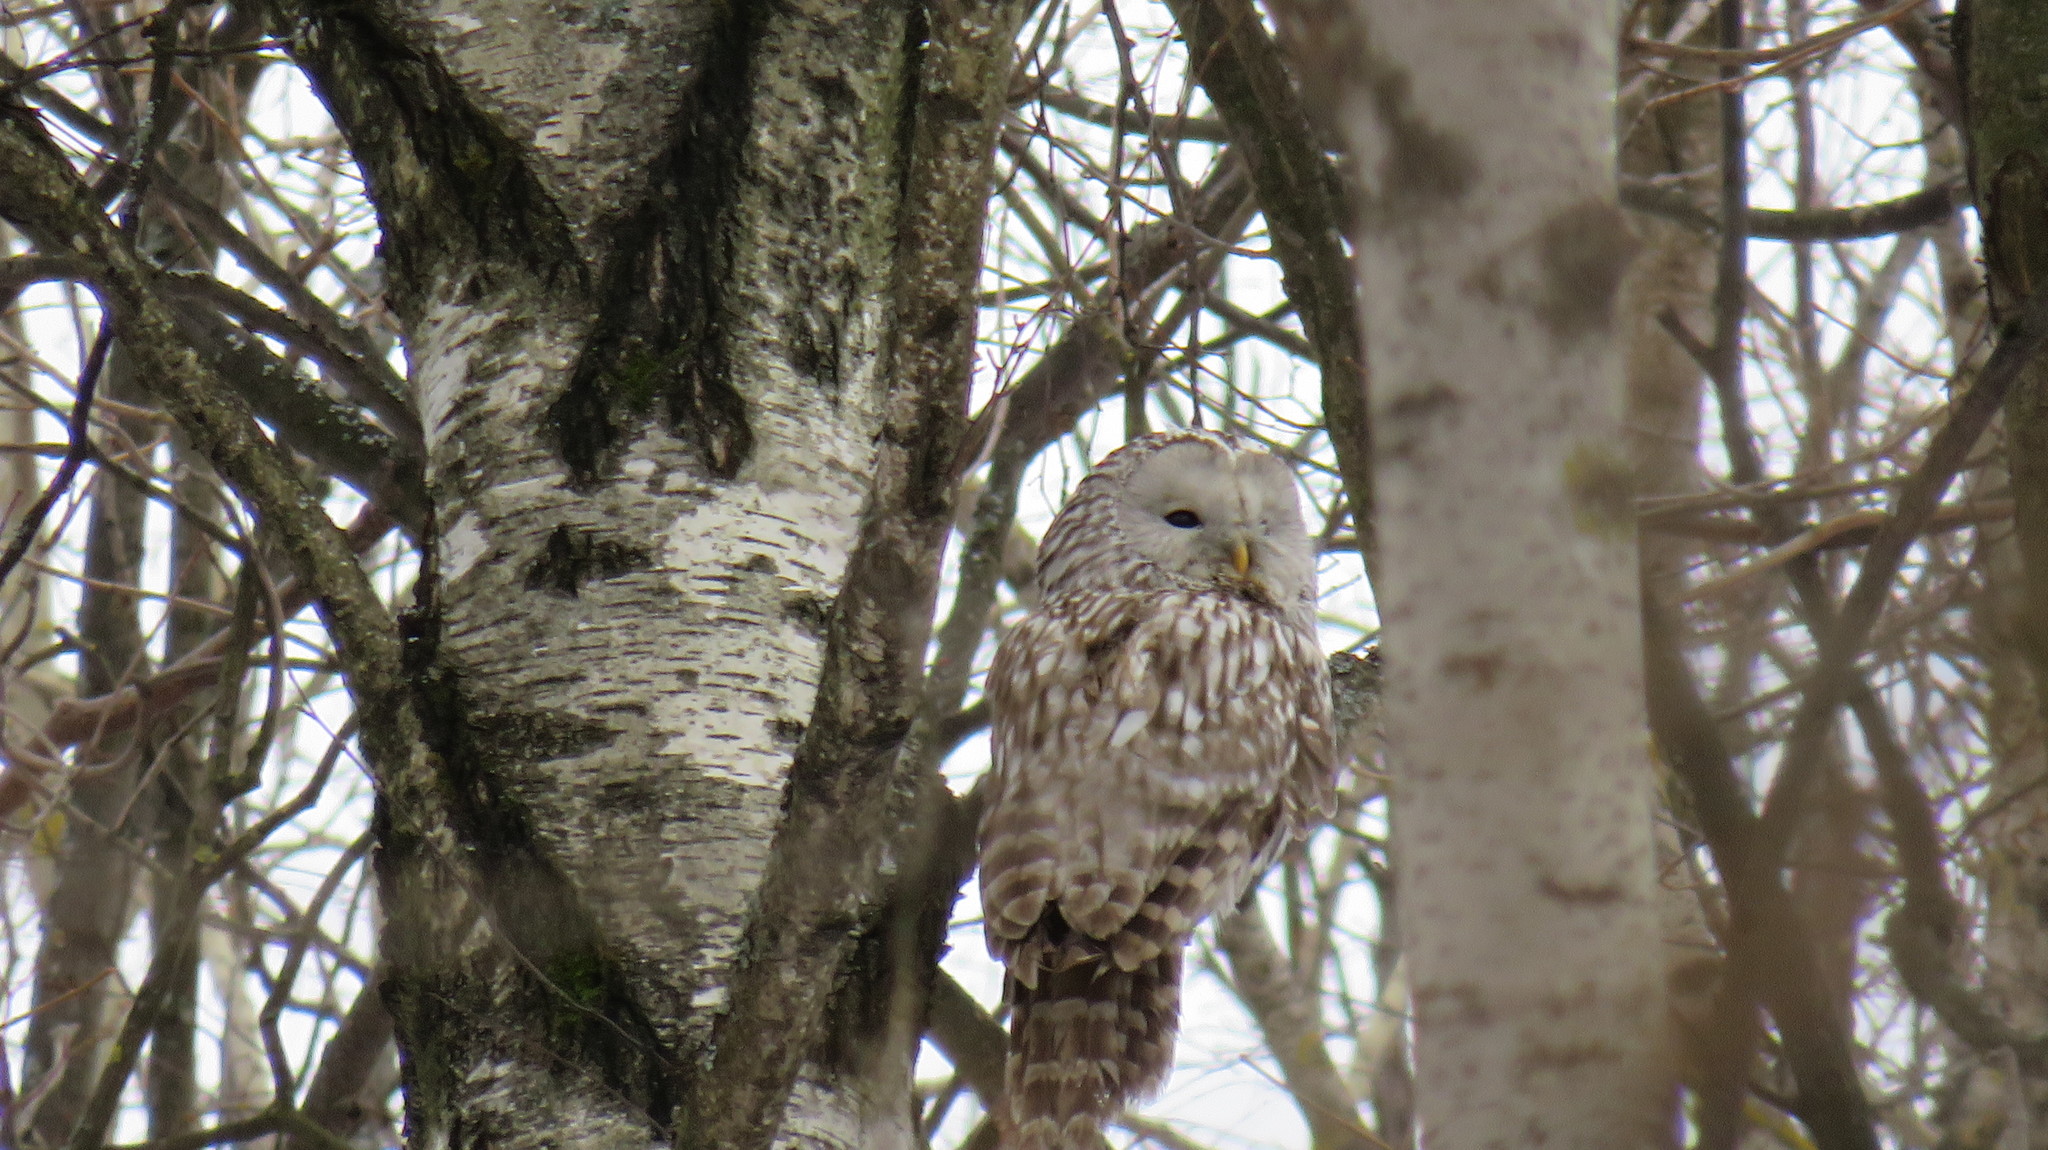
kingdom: Animalia
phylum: Chordata
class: Aves
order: Strigiformes
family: Strigidae
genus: Strix
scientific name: Strix uralensis
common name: Ural owl
